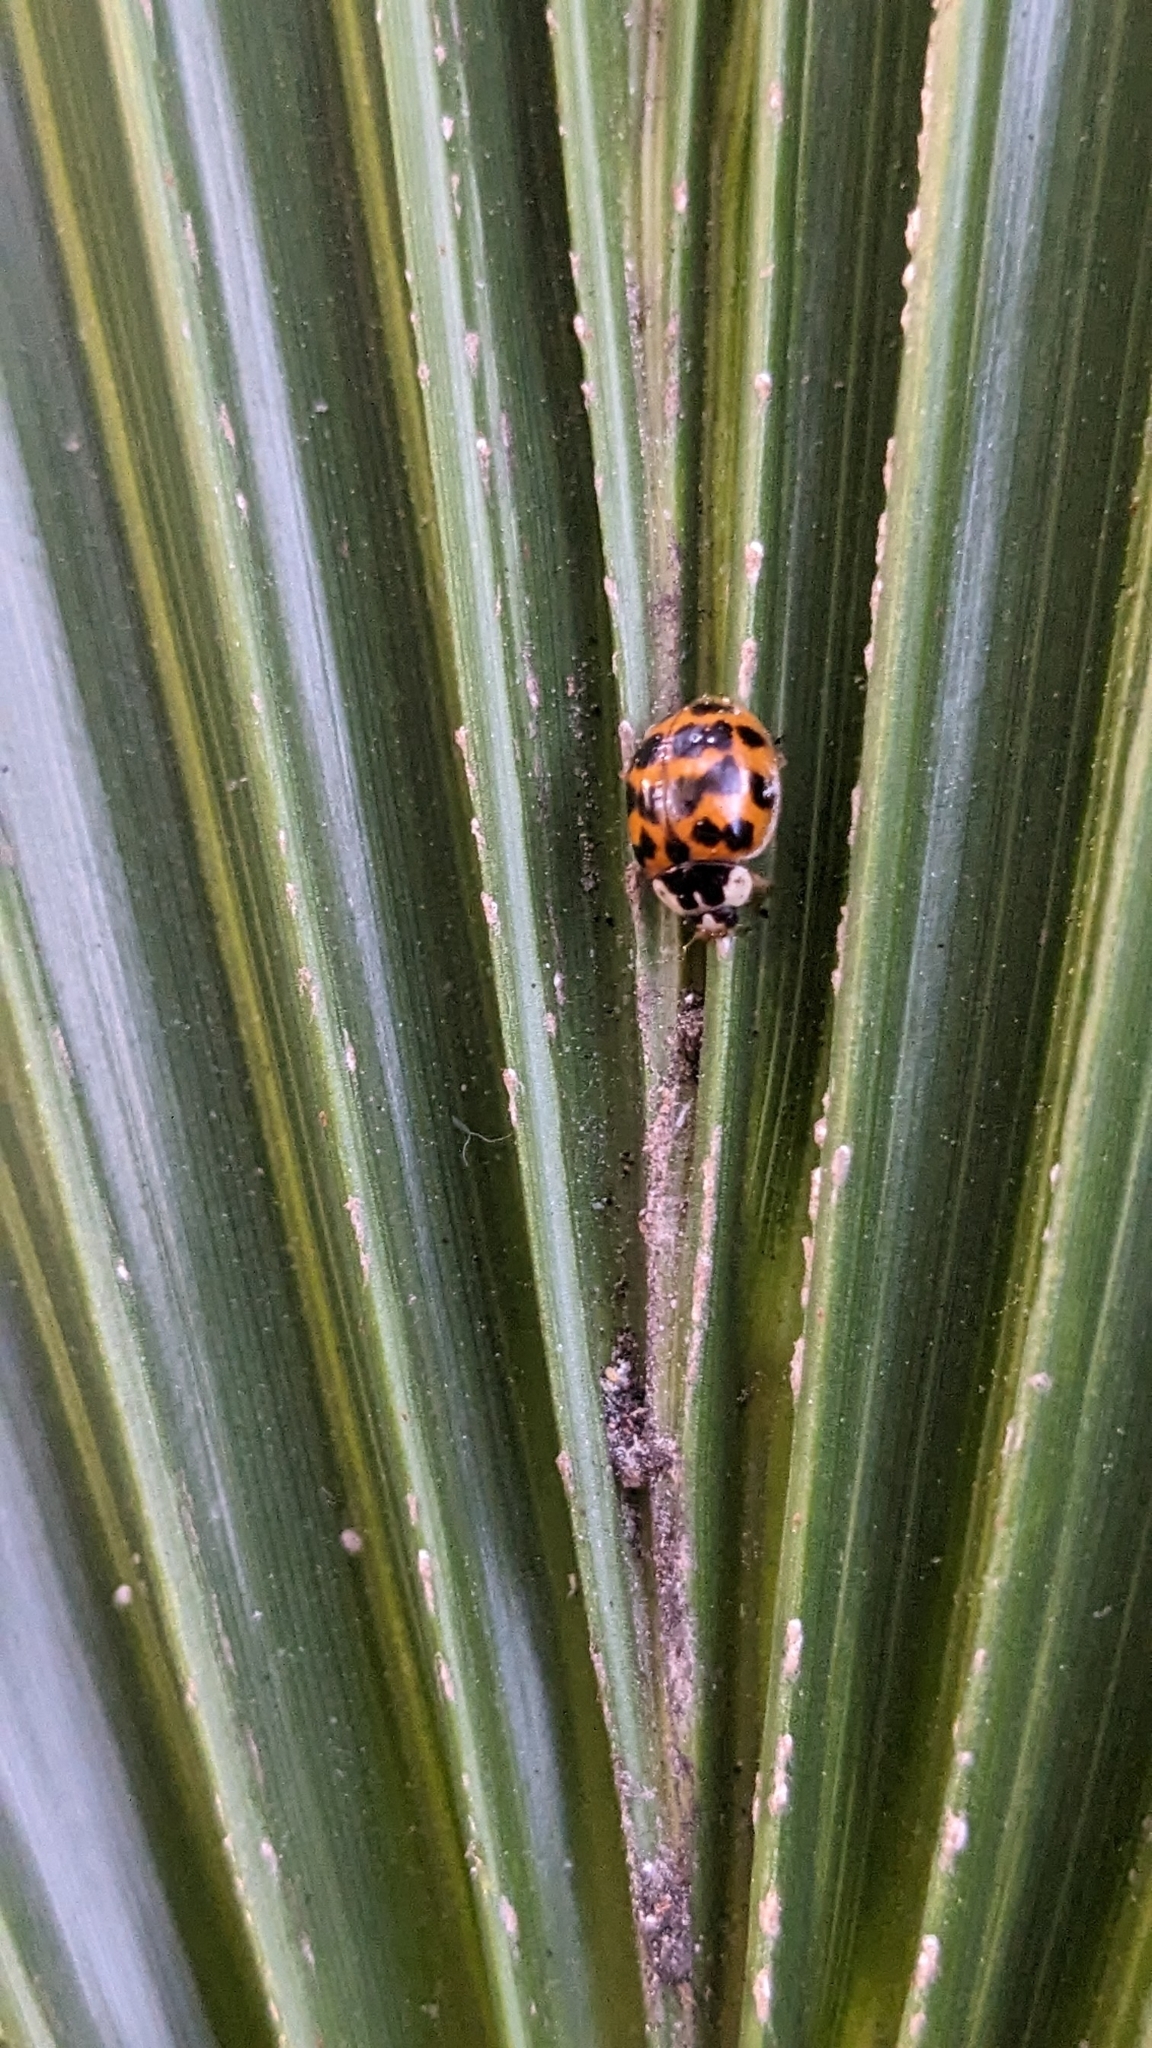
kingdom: Animalia
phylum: Arthropoda
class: Insecta
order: Coleoptera
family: Coccinellidae
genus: Harmonia
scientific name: Harmonia axyridis
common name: Harlequin ladybird
